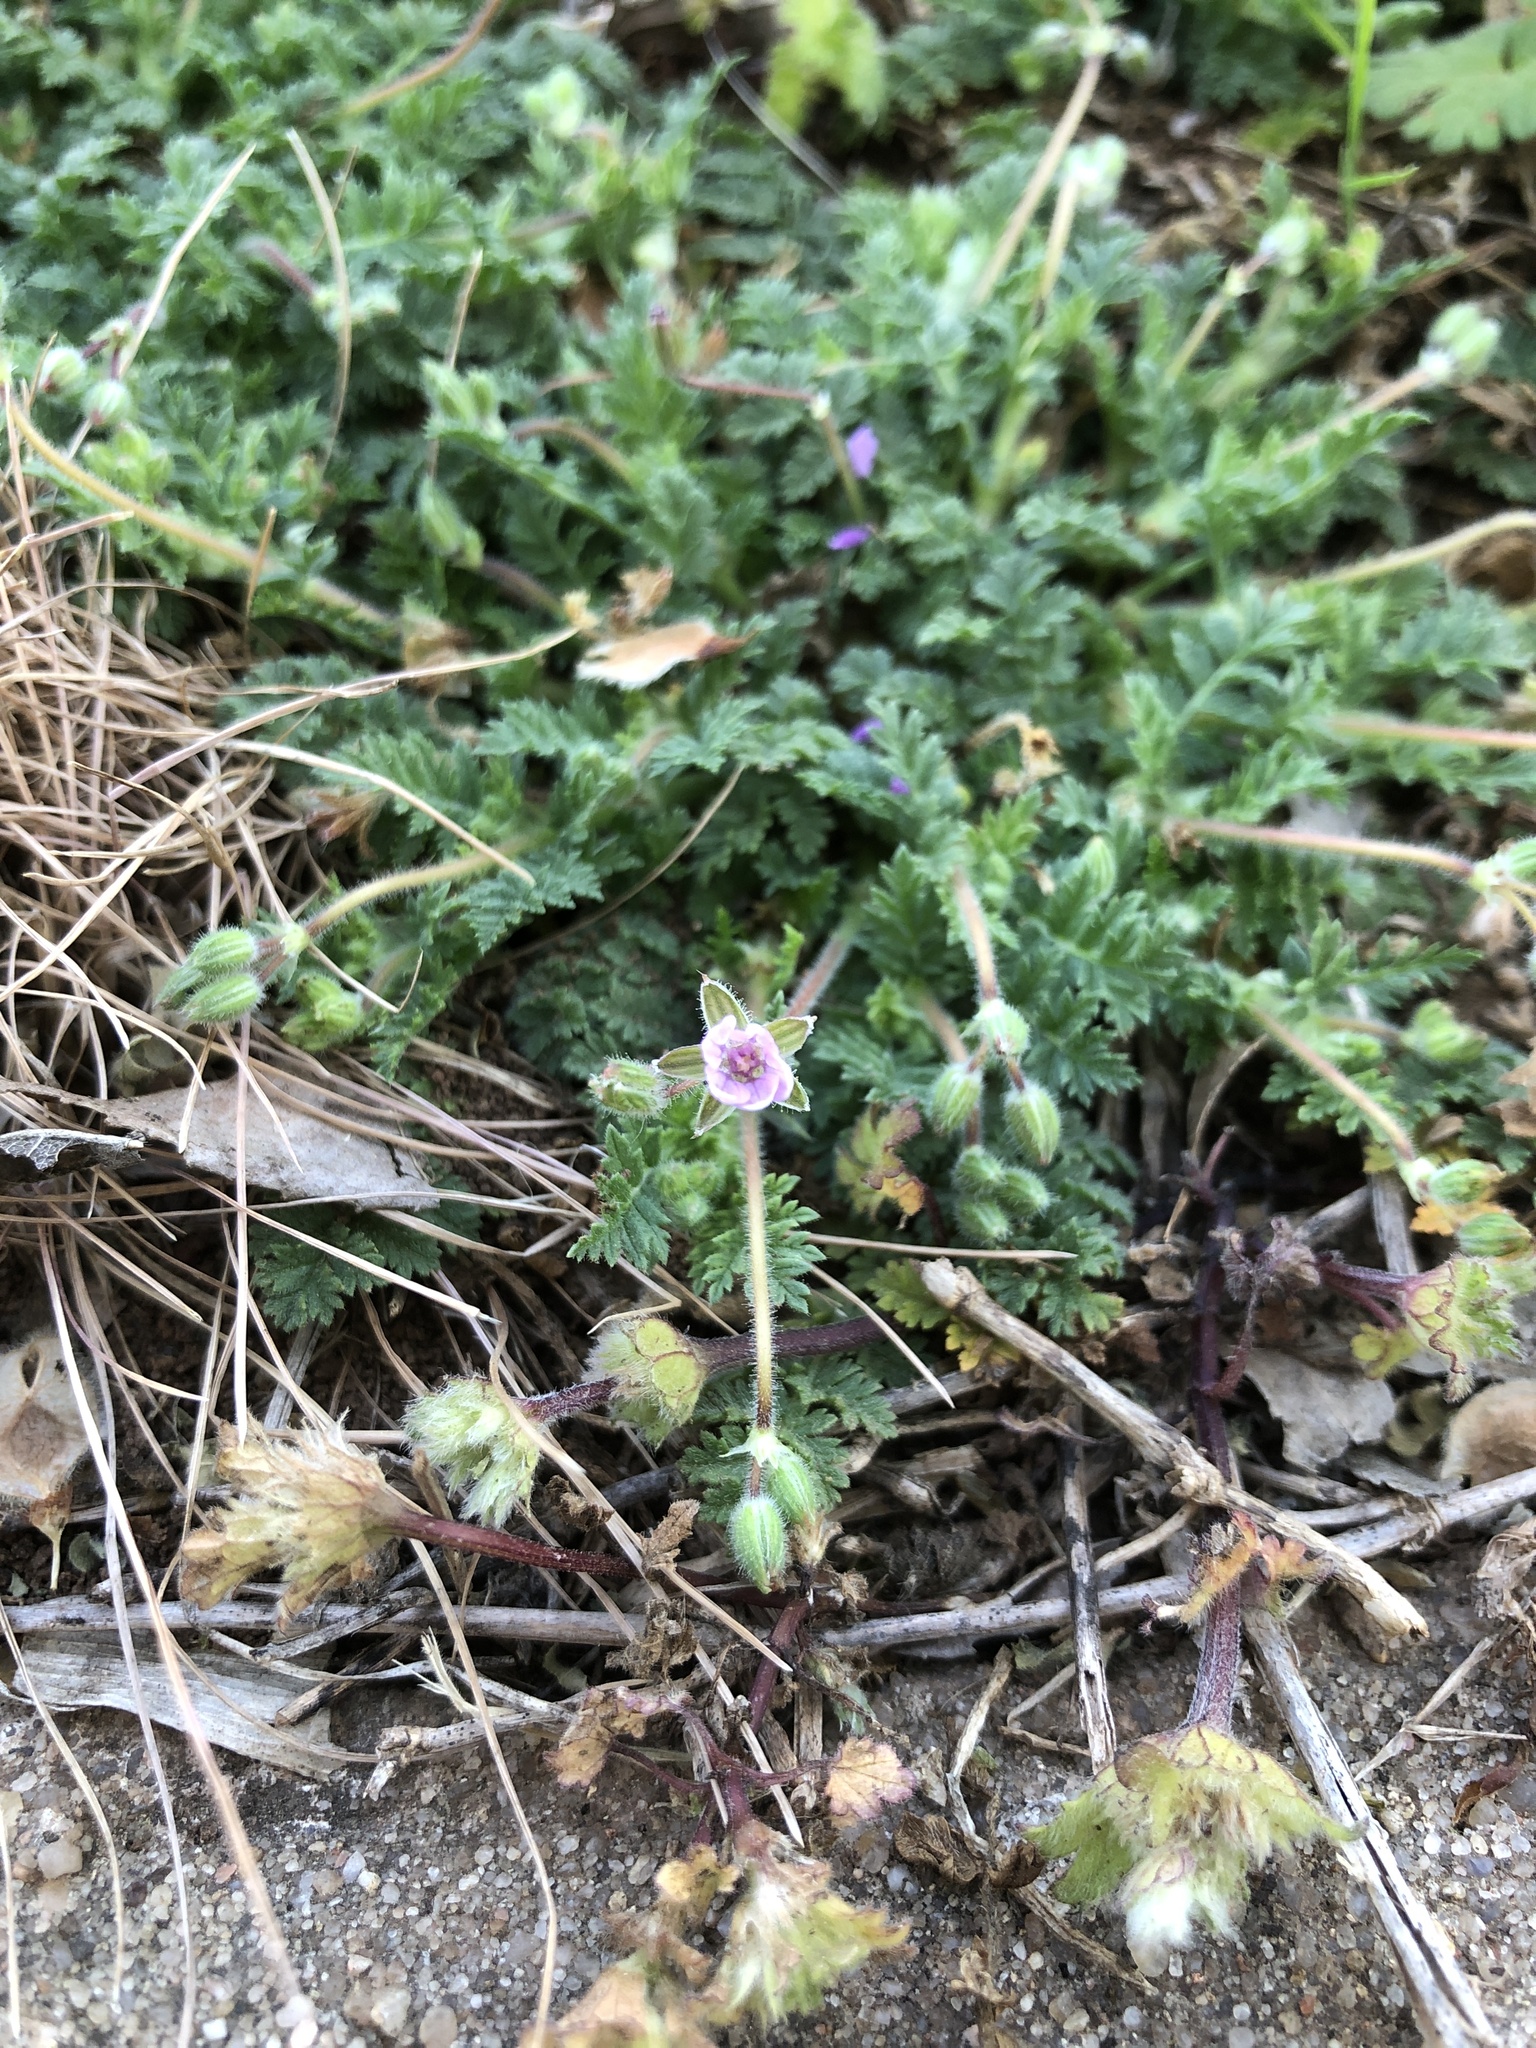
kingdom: Plantae
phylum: Tracheophyta
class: Magnoliopsida
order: Geraniales
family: Geraniaceae
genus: Erodium
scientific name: Erodium cicutarium
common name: Common stork's-bill
